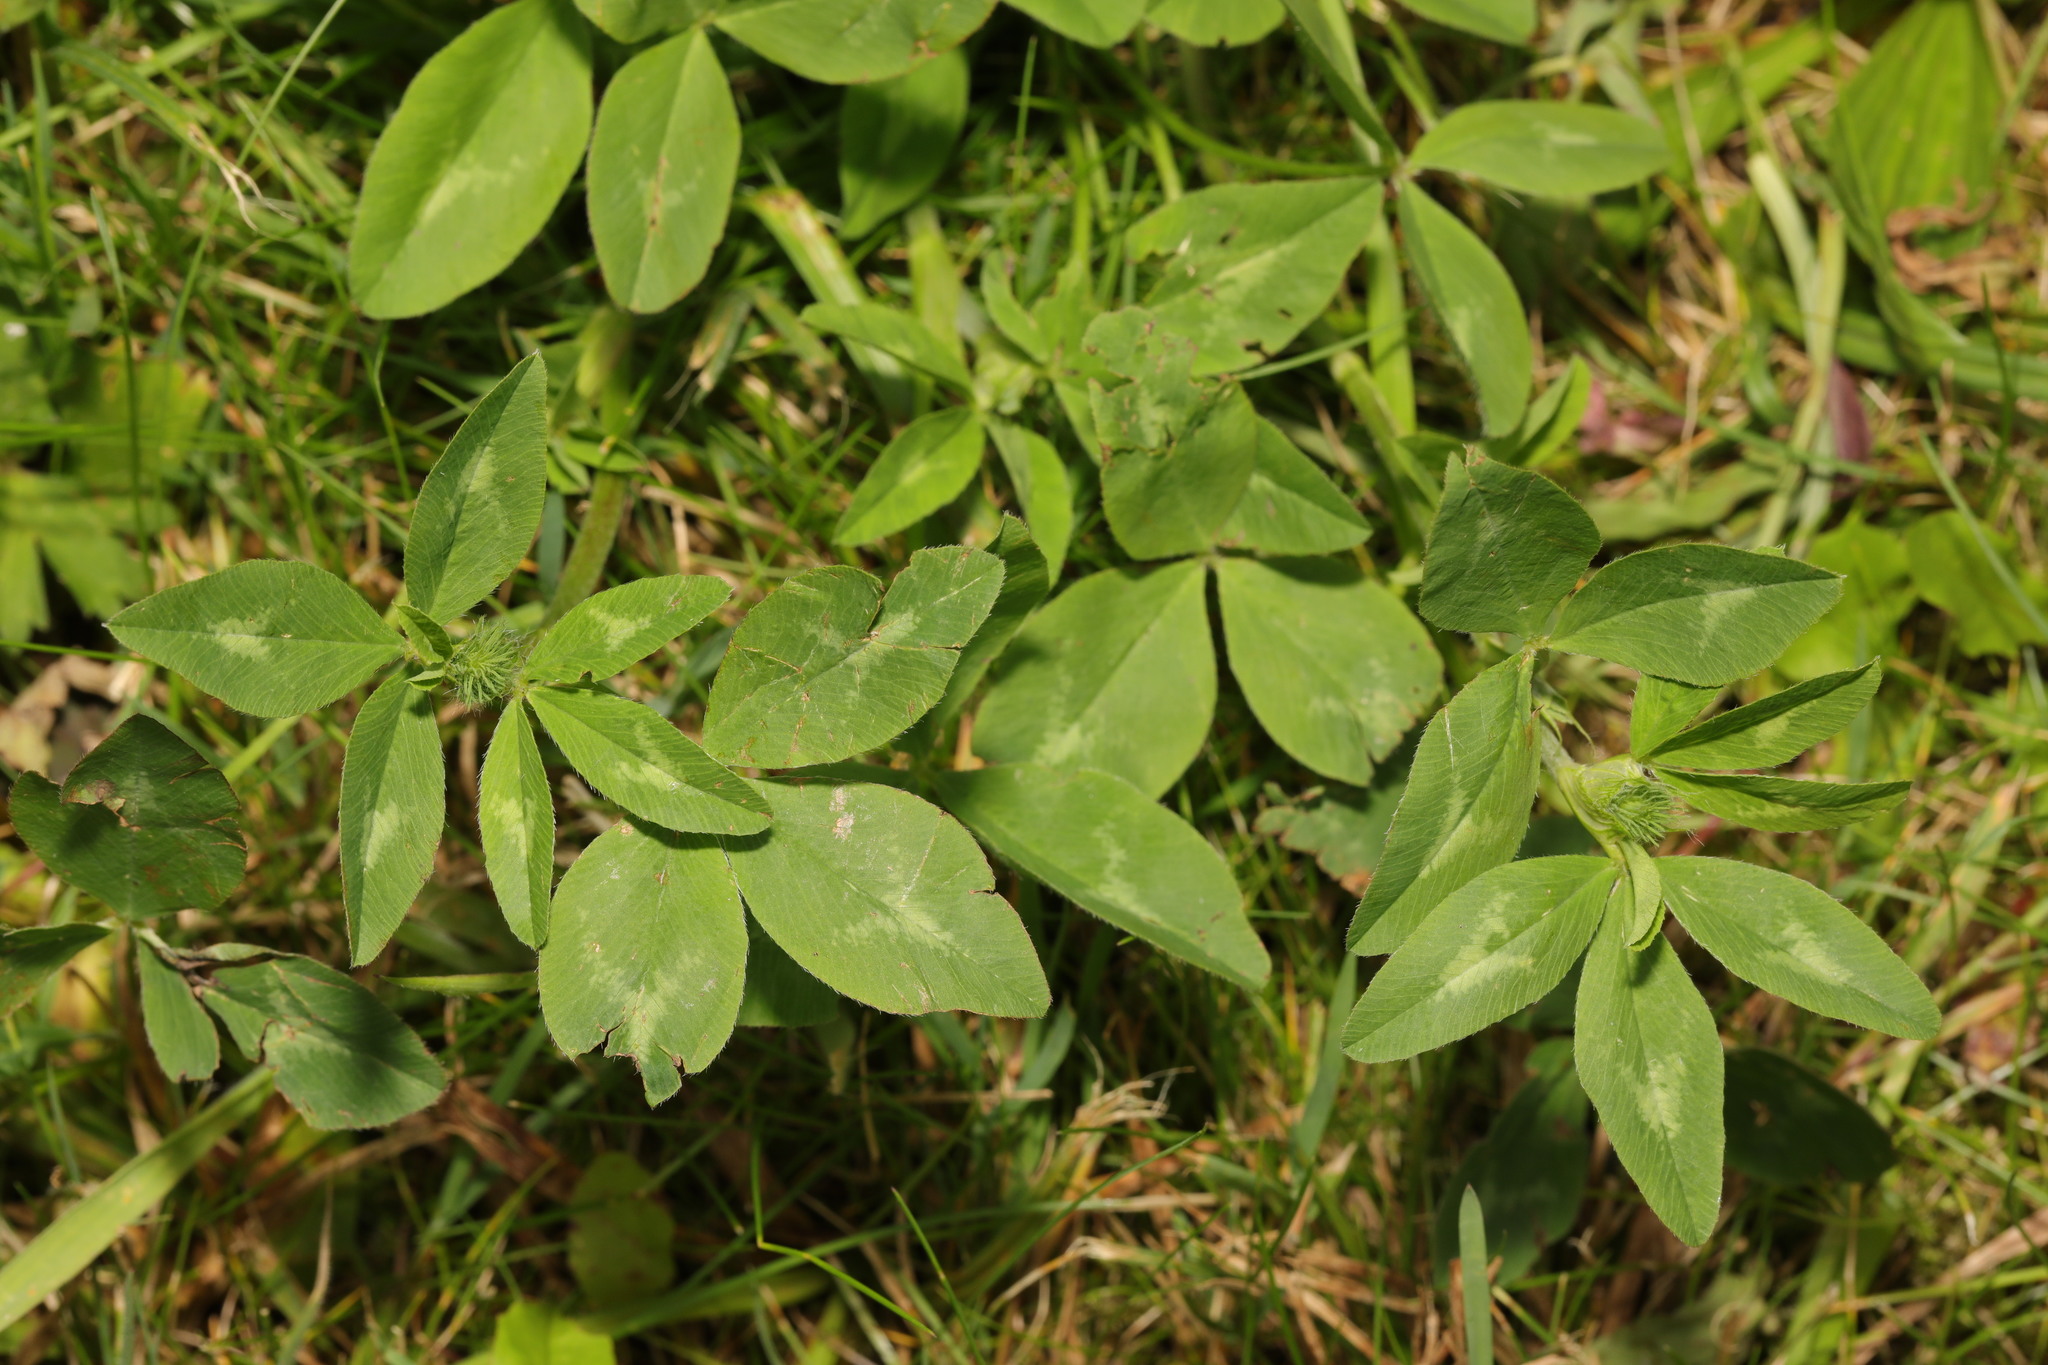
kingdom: Plantae
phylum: Tracheophyta
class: Magnoliopsida
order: Fabales
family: Fabaceae
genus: Trifolium
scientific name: Trifolium pratense
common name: Red clover
